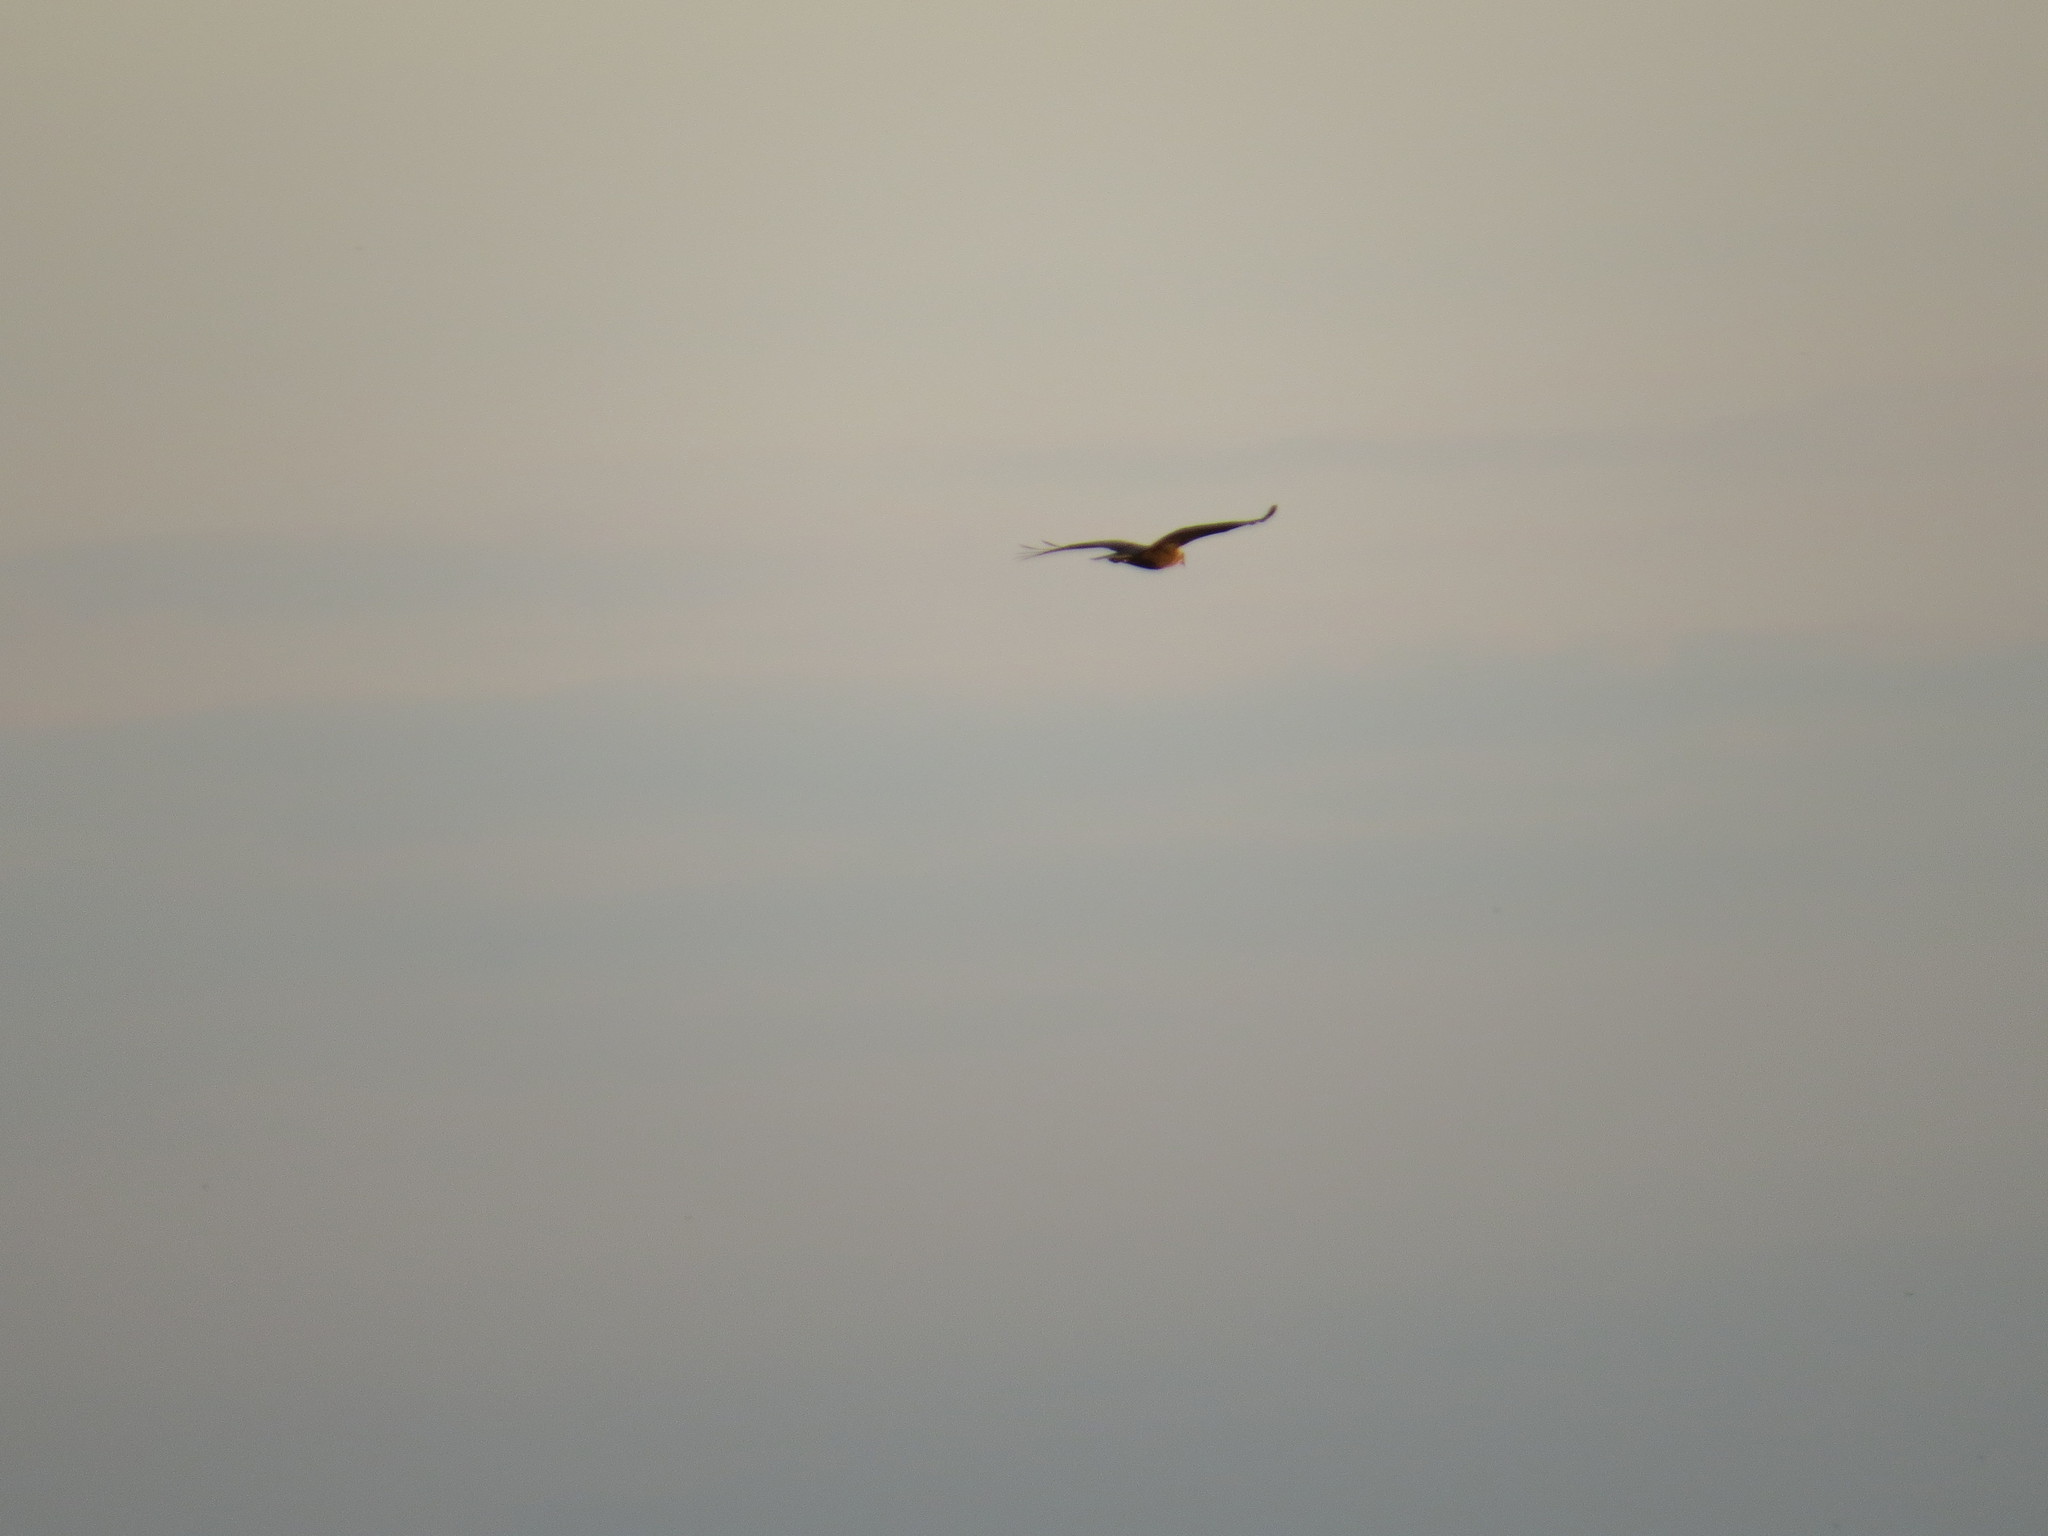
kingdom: Animalia
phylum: Chordata
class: Aves
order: Accipitriformes
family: Accipitridae
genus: Circus
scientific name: Circus aeruginosus
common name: Western marsh harrier
